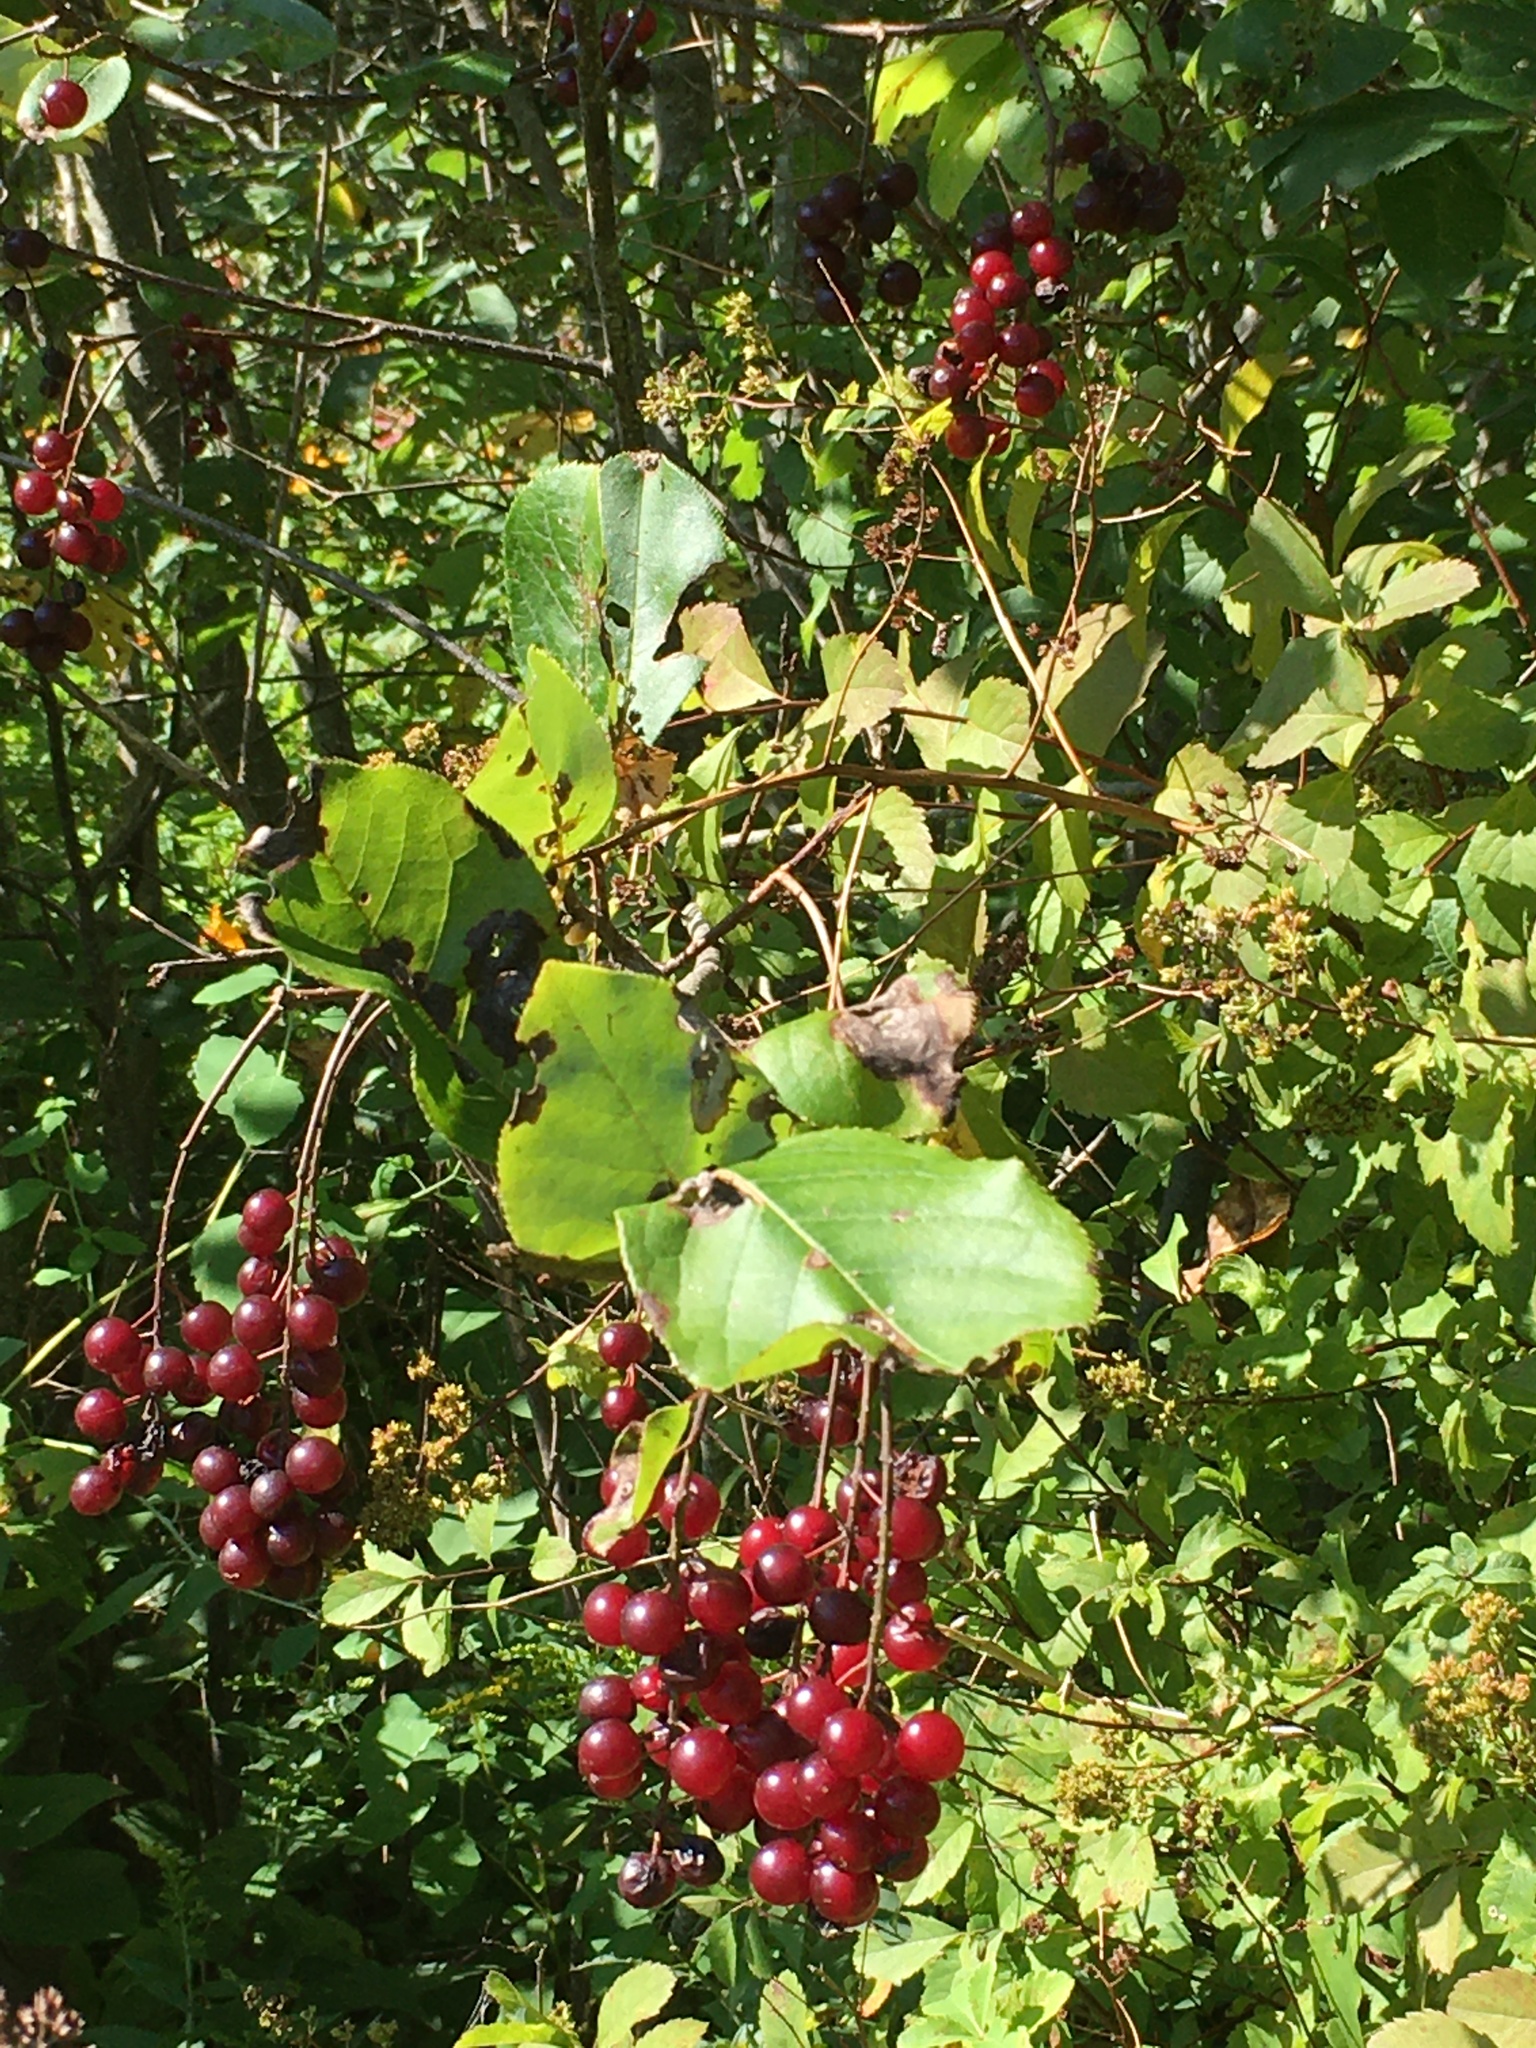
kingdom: Plantae
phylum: Tracheophyta
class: Magnoliopsida
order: Rosales
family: Rosaceae
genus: Prunus
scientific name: Prunus virginiana
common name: Chokecherry
